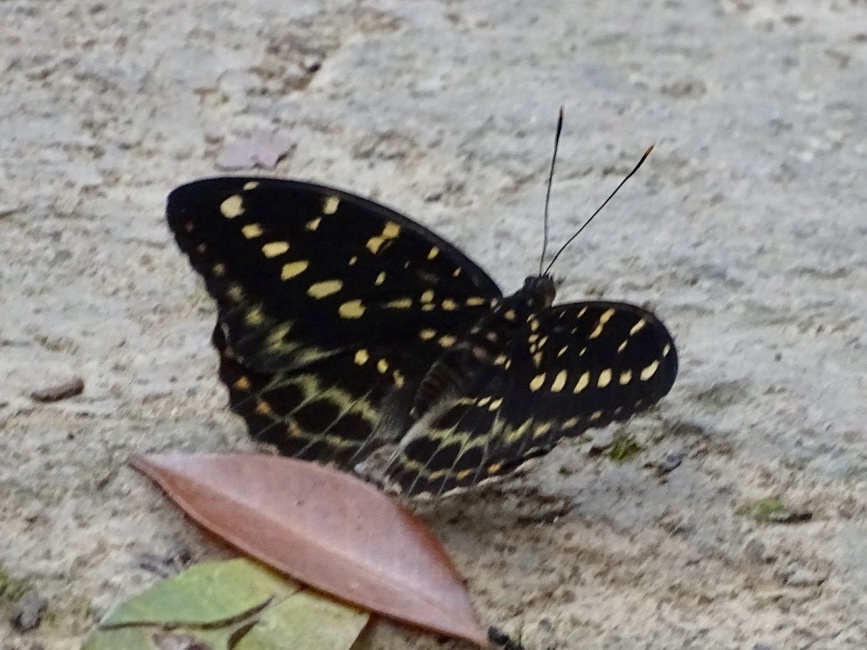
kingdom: Animalia
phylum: Arthropoda
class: Insecta
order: Lepidoptera
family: Nymphalidae
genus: Lexias
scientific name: Lexias pardalis
